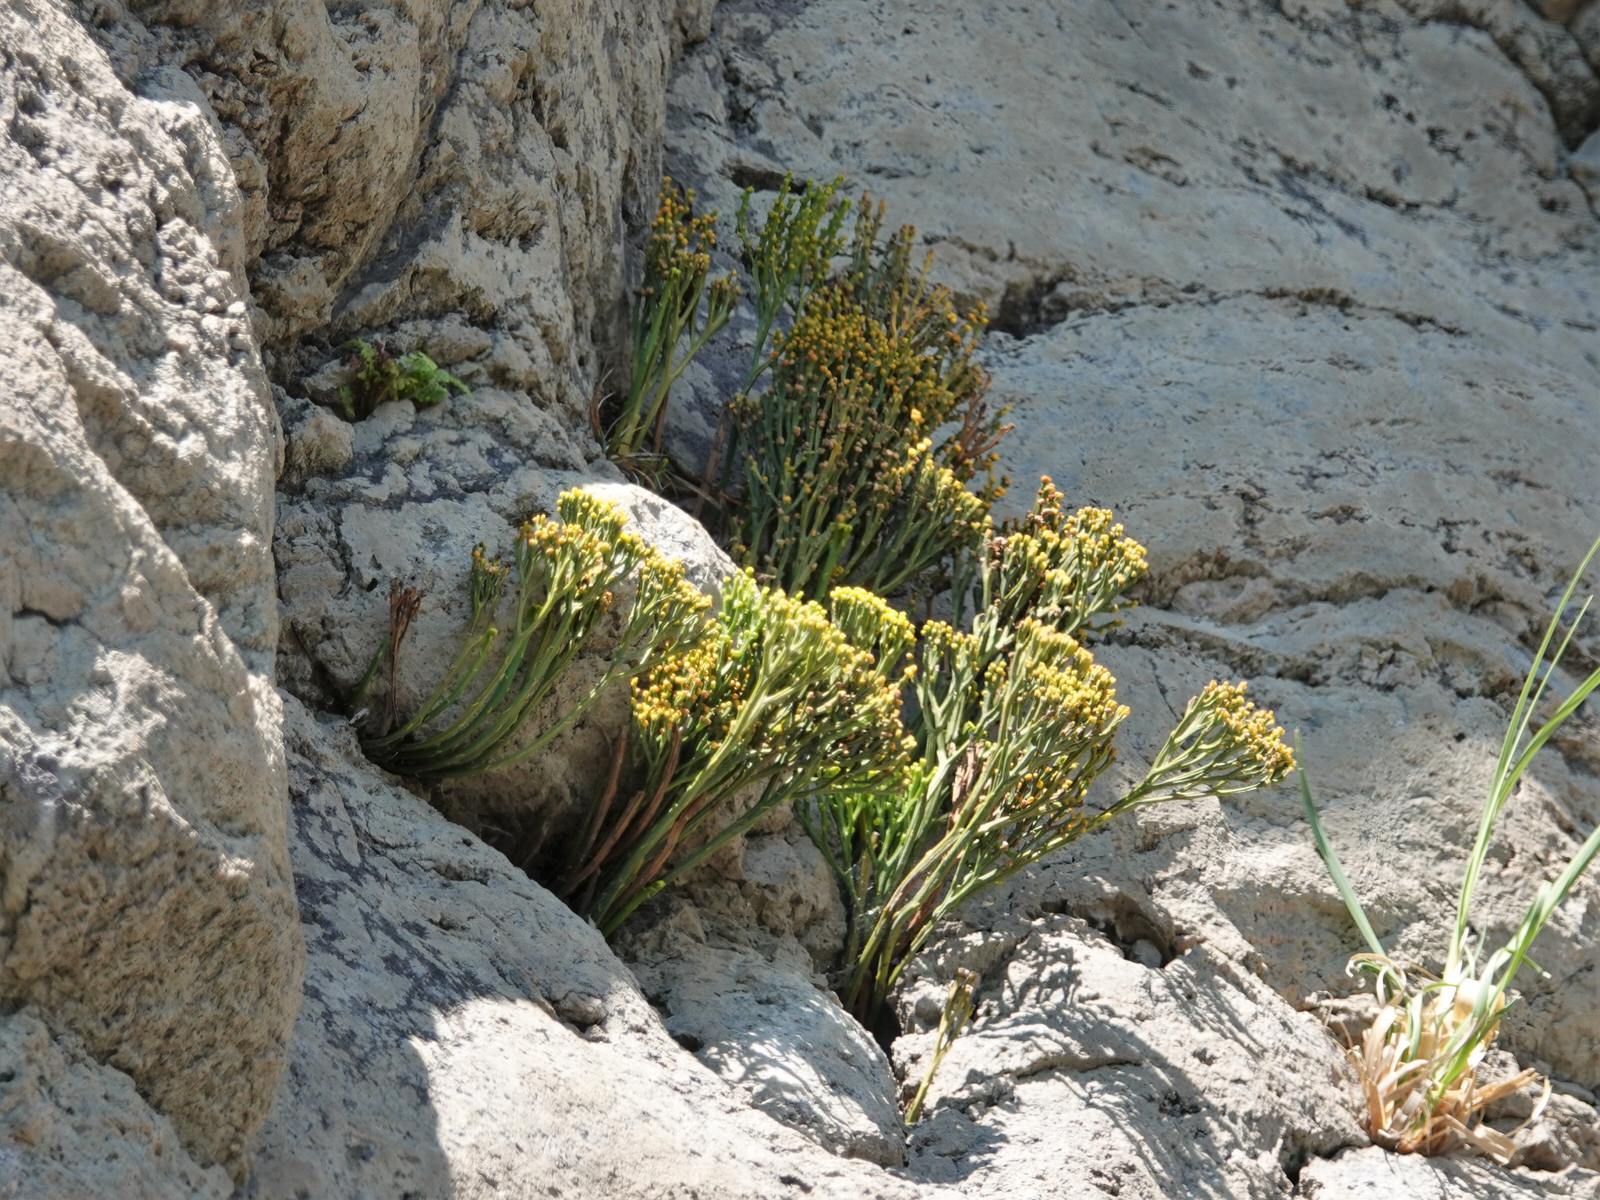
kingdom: Plantae
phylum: Tracheophyta
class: Polypodiopsida
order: Psilotales
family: Psilotaceae
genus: Psilotum
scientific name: Psilotum nudum
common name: Skeleton fork fern
